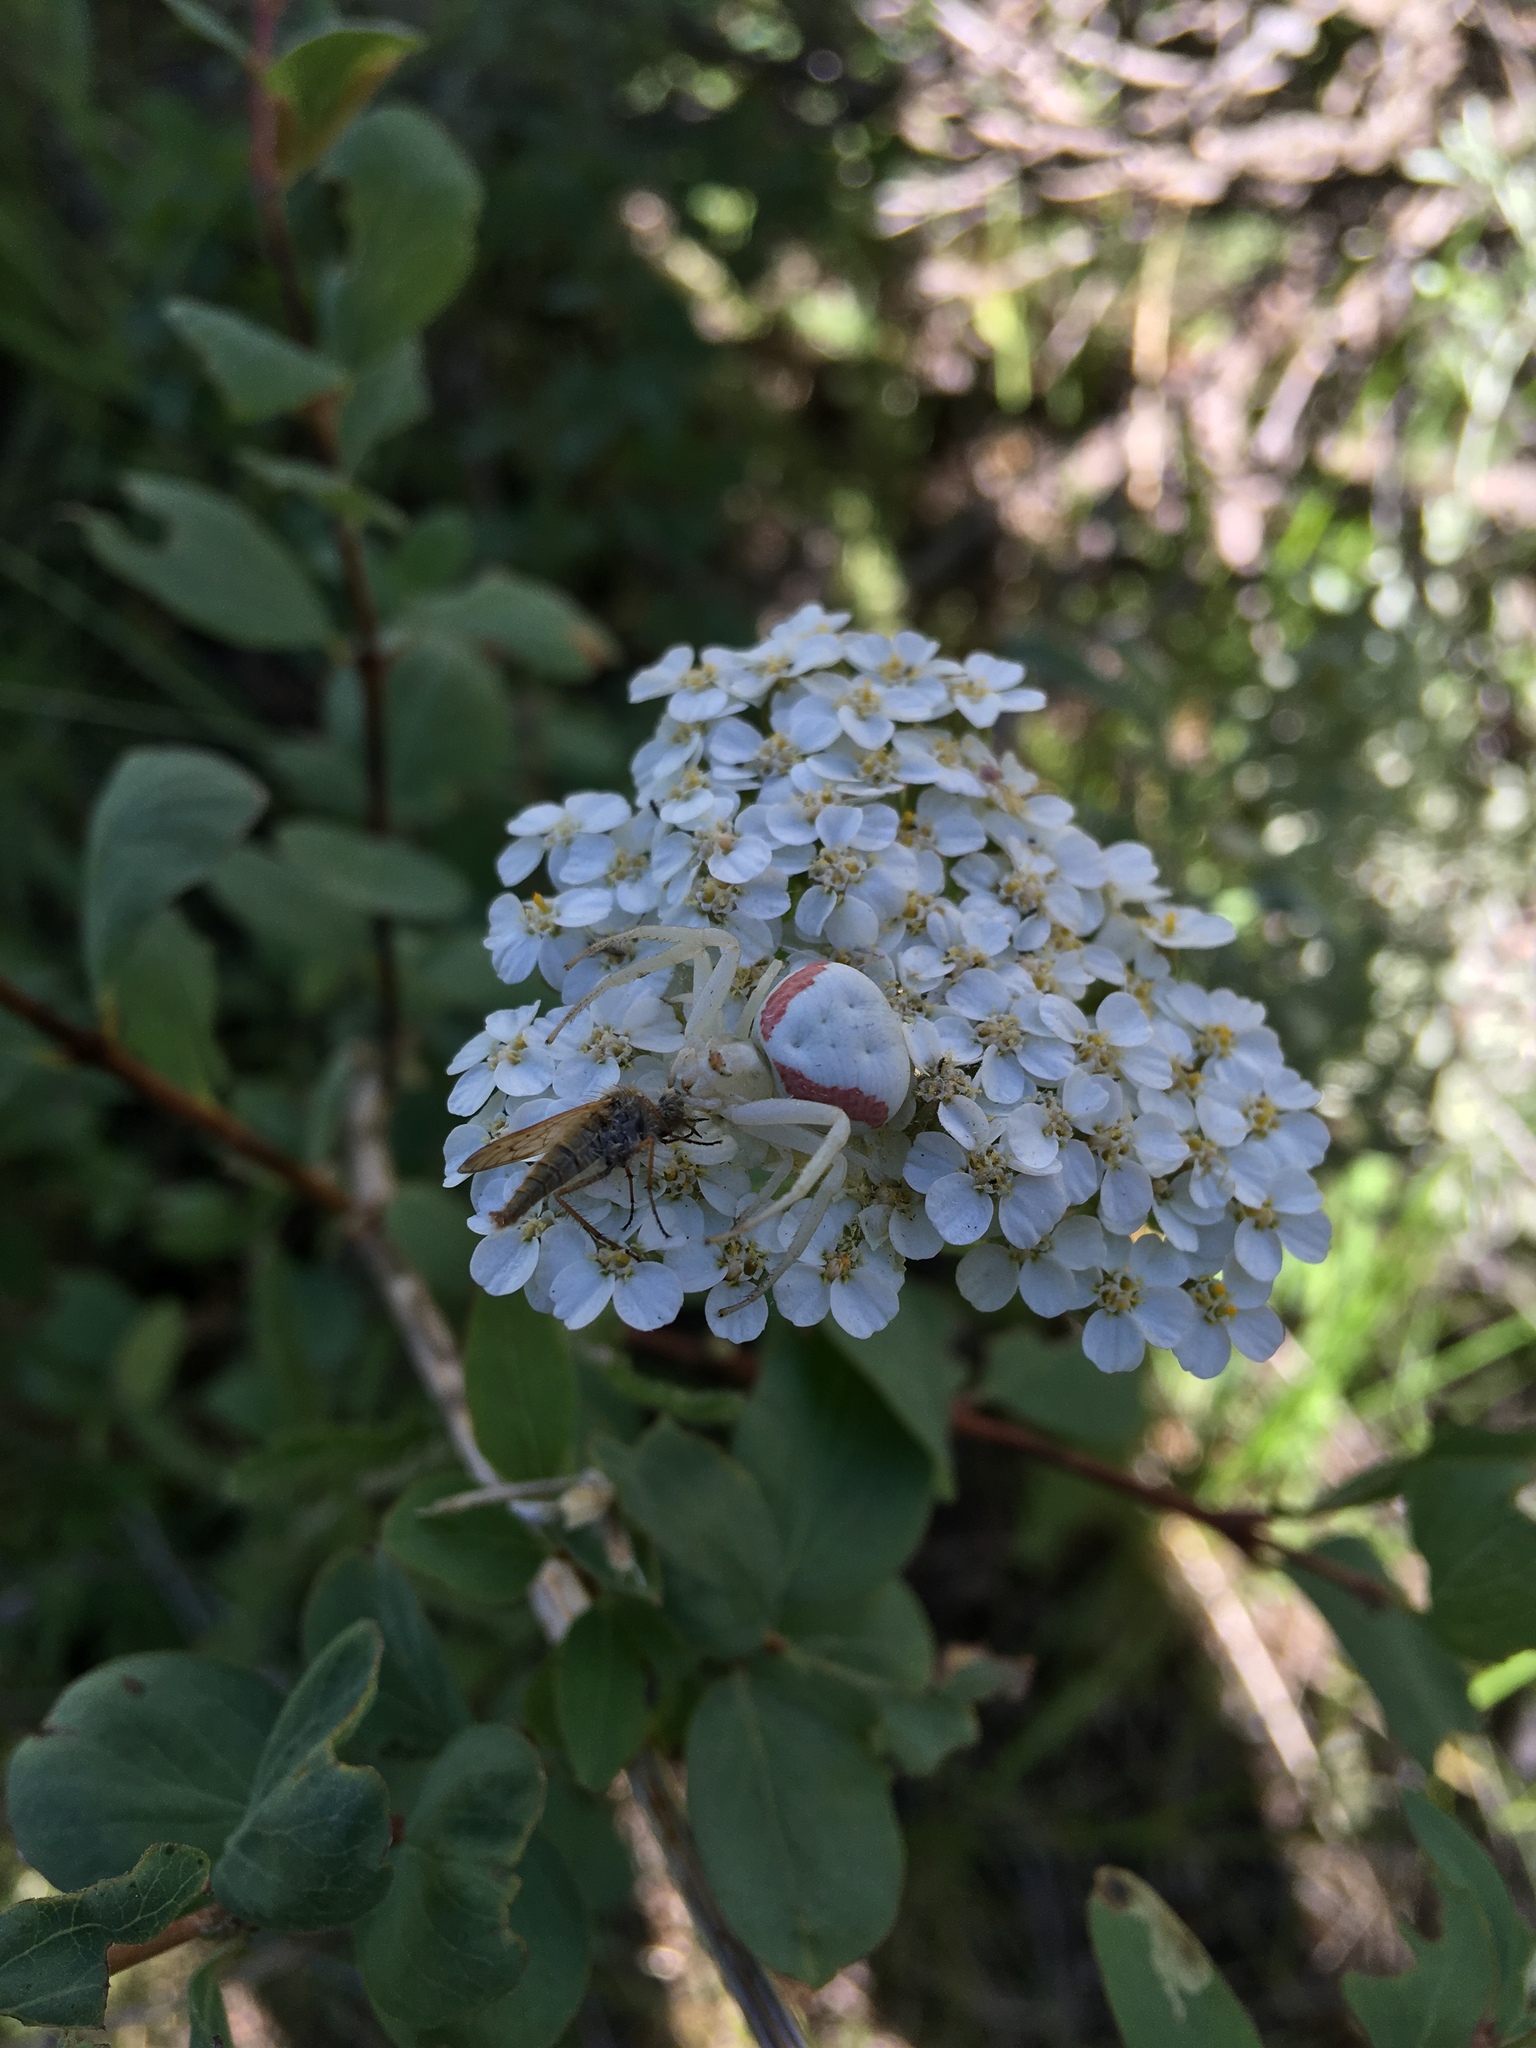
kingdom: Animalia
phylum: Arthropoda
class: Arachnida
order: Araneae
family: Thomisidae
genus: Misumena
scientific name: Misumena vatia
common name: Goldenrod crab spider
